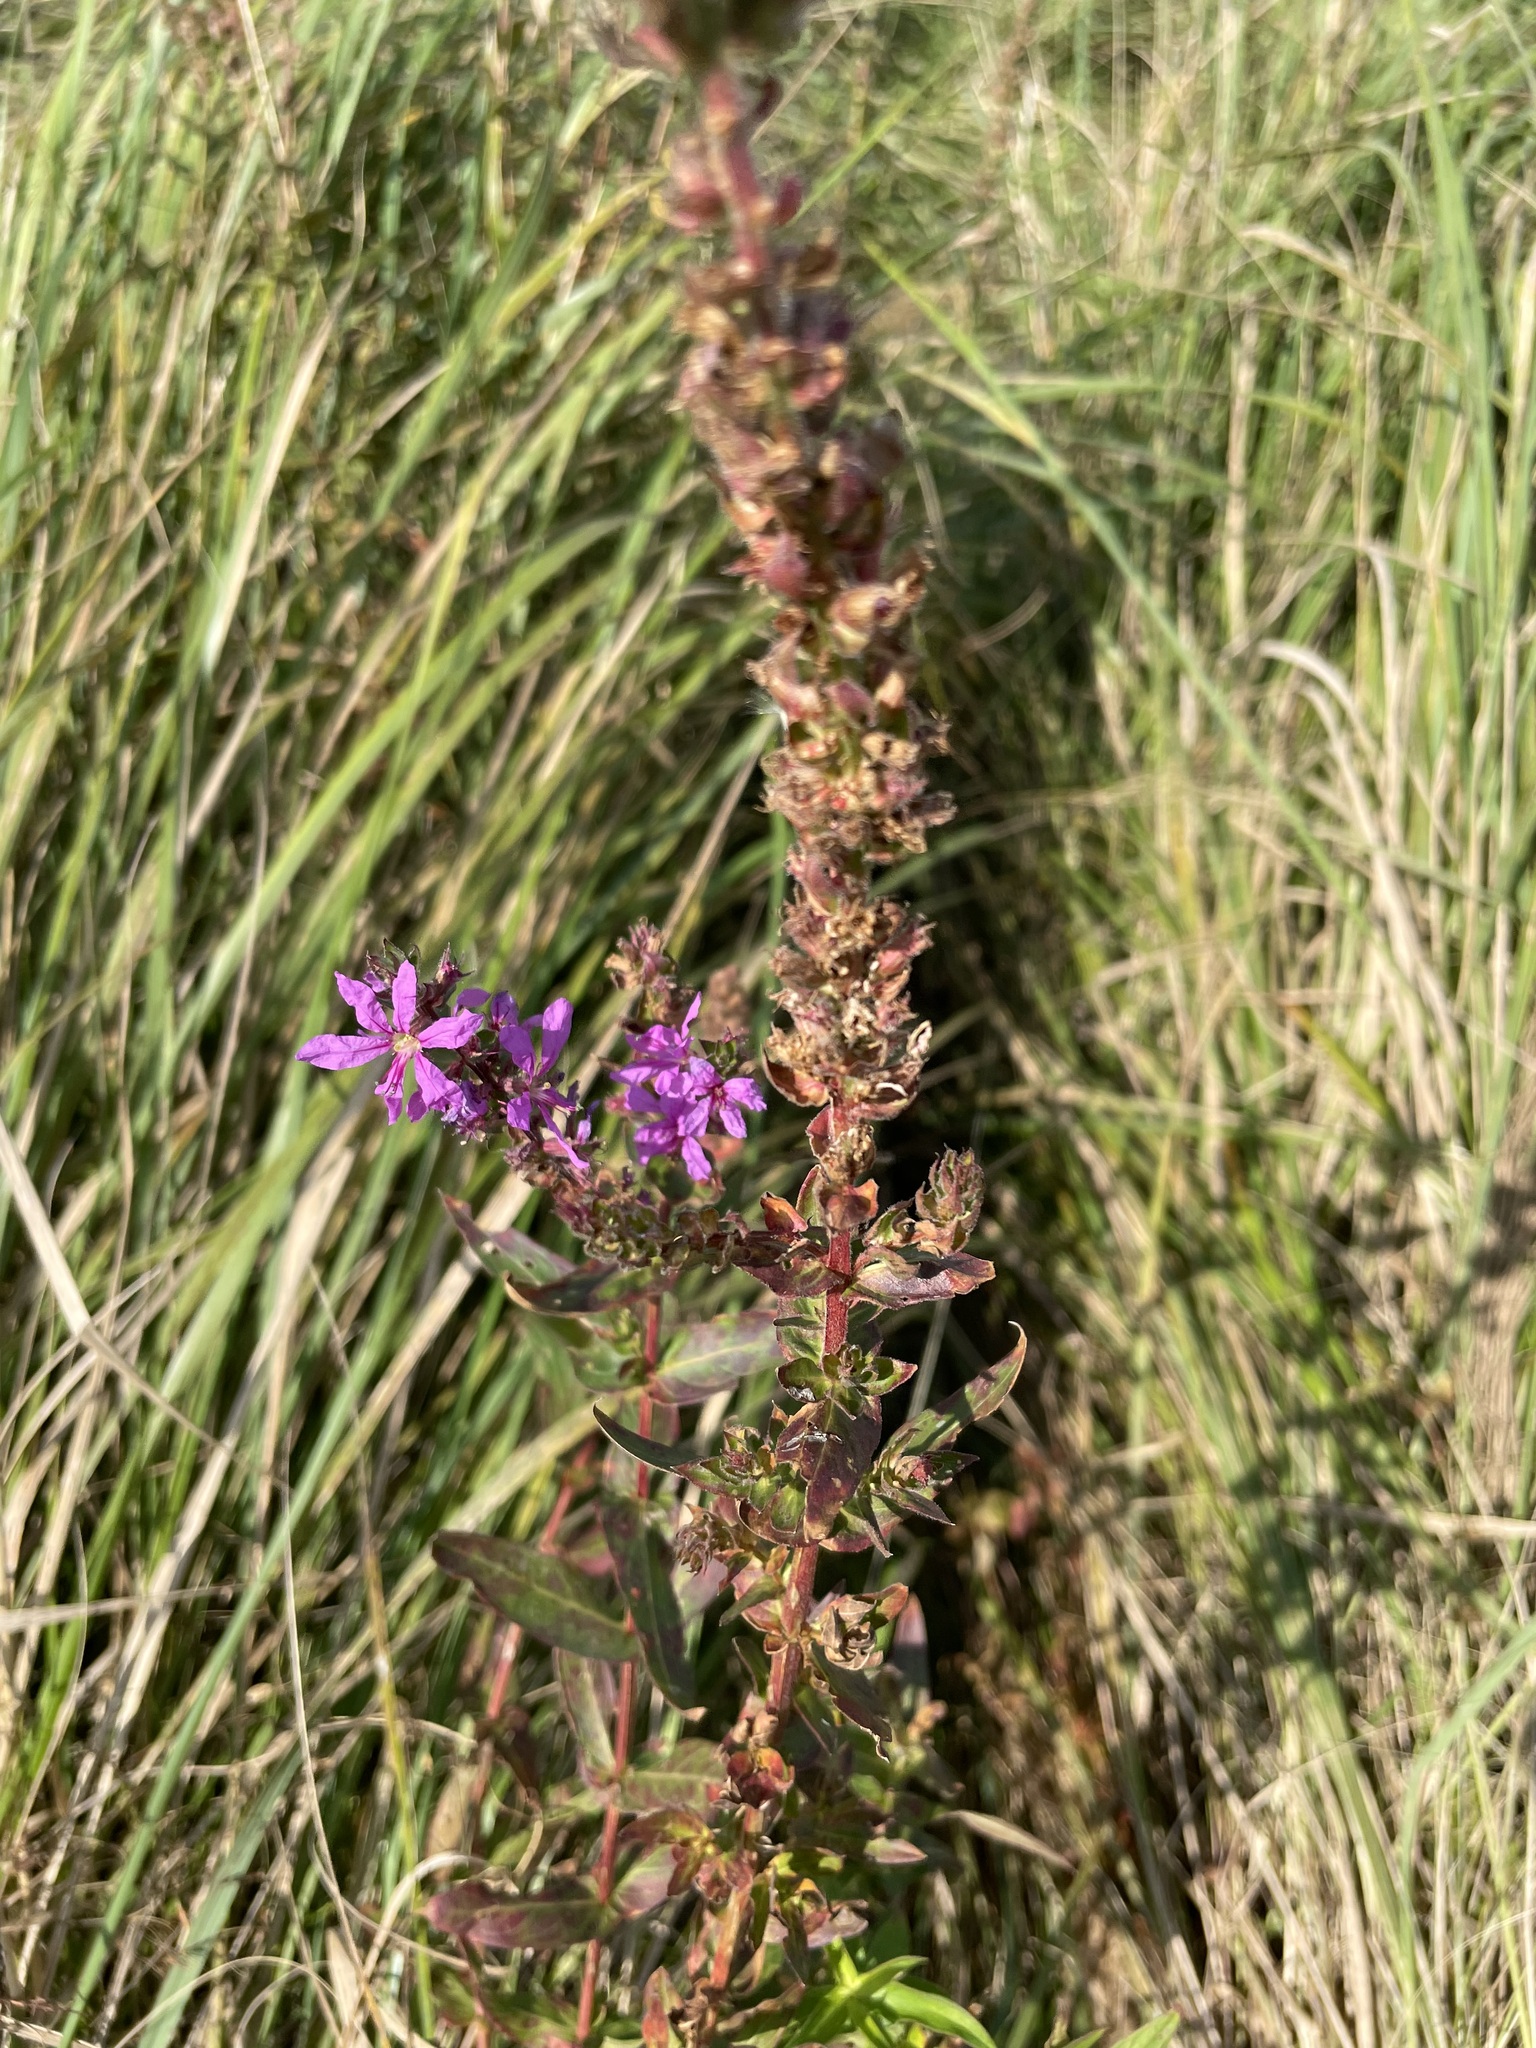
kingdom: Plantae
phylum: Tracheophyta
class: Magnoliopsida
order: Myrtales
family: Lythraceae
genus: Lythrum
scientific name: Lythrum salicaria
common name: Purple loosestrife
